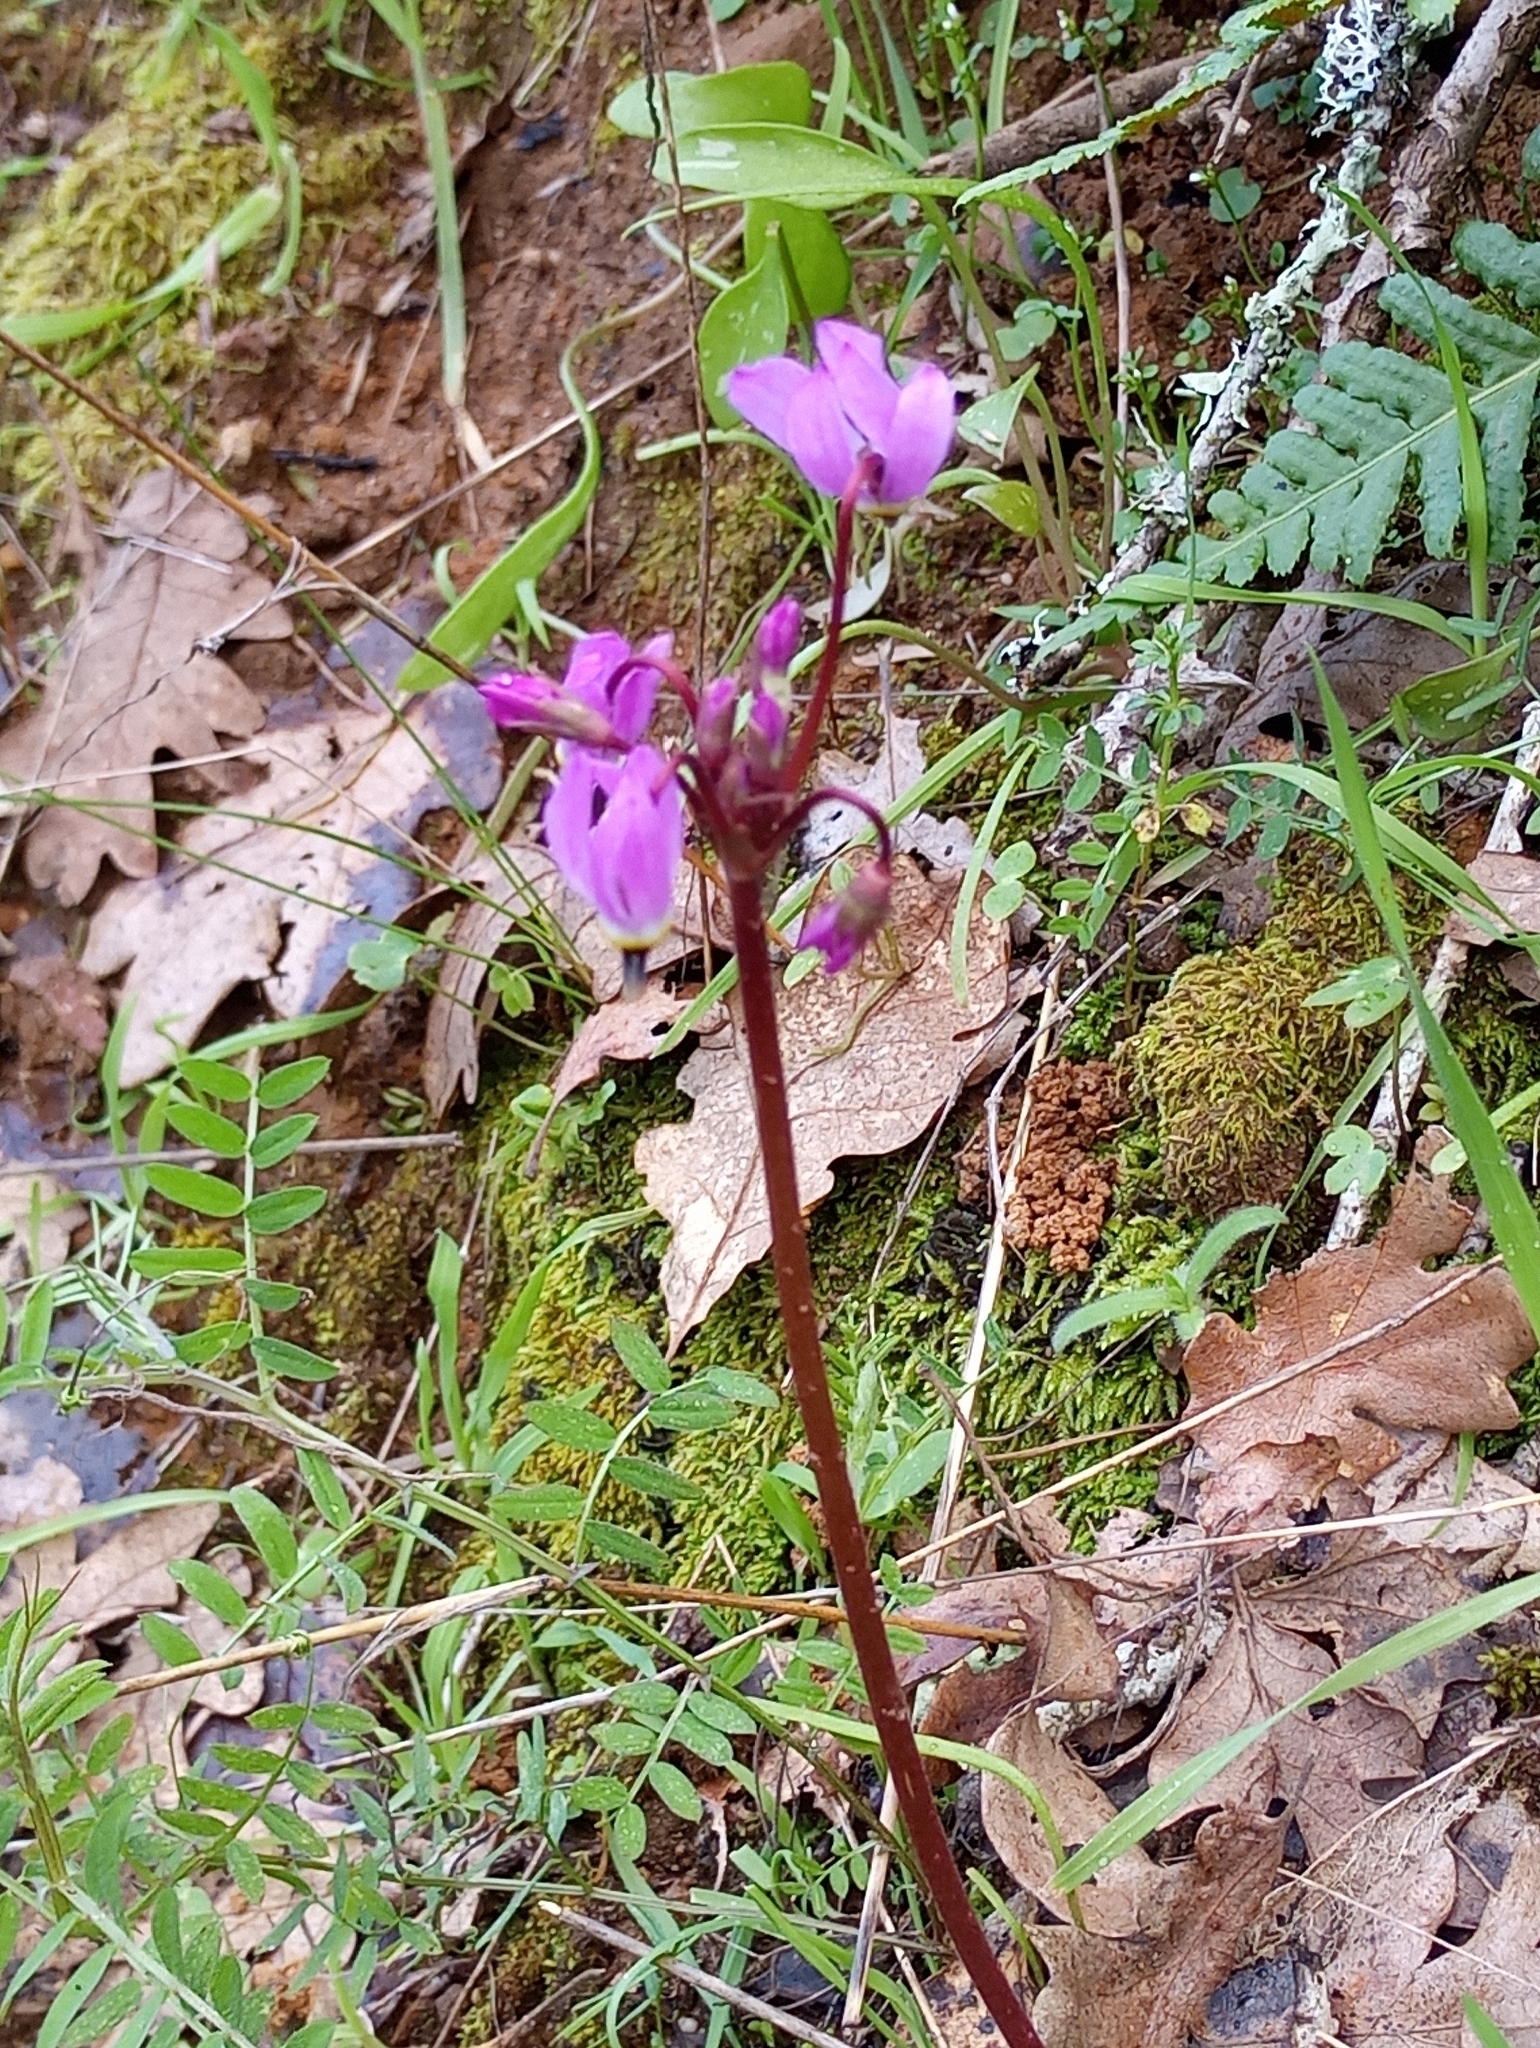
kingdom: Plantae
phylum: Tracheophyta
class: Magnoliopsida
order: Ericales
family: Primulaceae
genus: Dodecatheon
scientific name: Dodecatheon hendersonii
